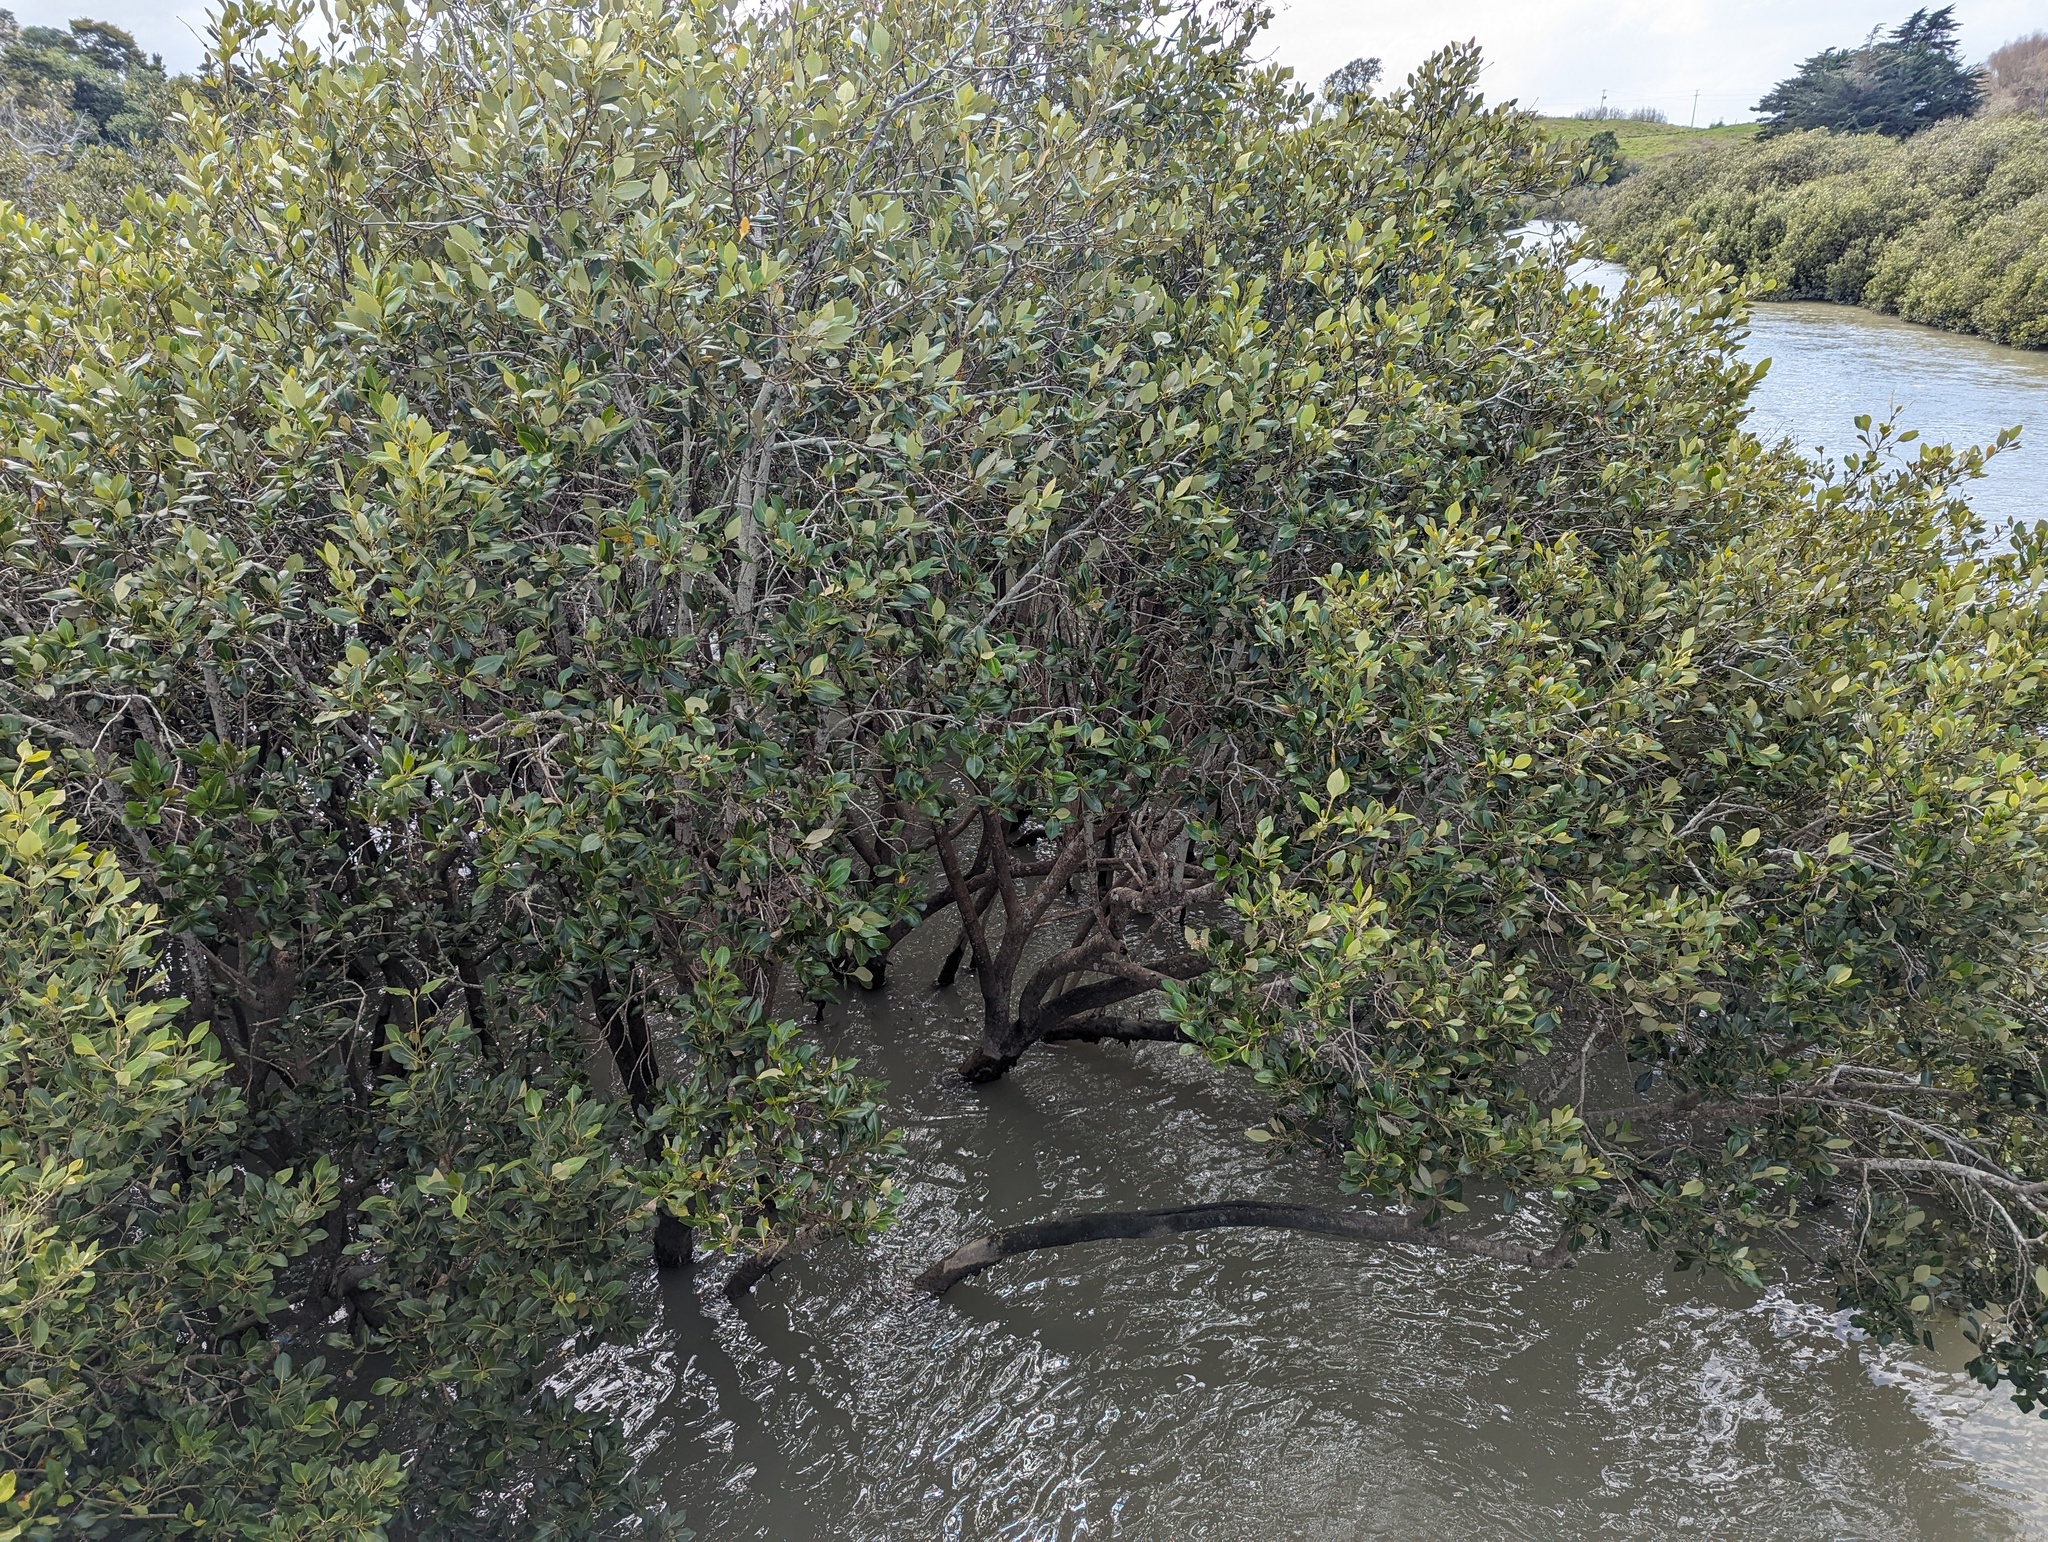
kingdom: Plantae
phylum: Tracheophyta
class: Magnoliopsida
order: Lamiales
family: Acanthaceae
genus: Avicennia
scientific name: Avicennia marina
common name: Gray mangrove
